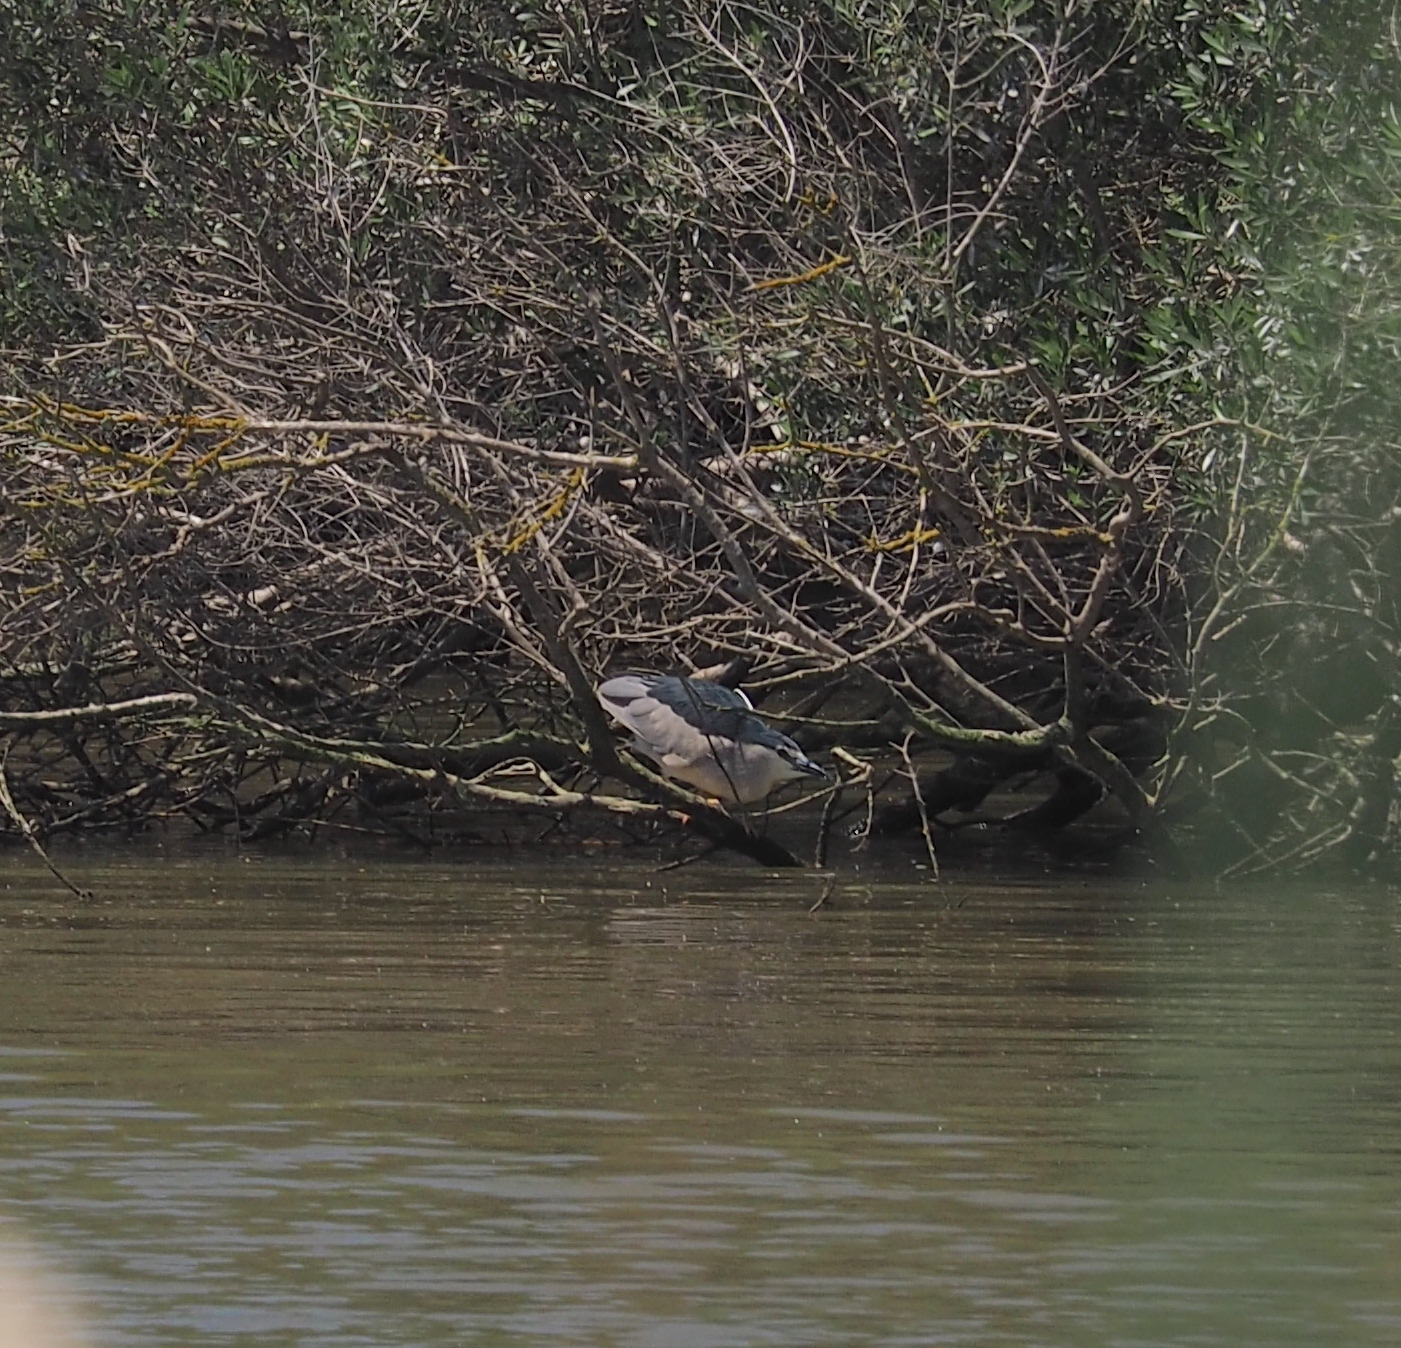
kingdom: Animalia
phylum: Chordata
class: Aves
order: Pelecaniformes
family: Ardeidae
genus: Nycticorax
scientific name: Nycticorax nycticorax
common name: Black-crowned night heron
